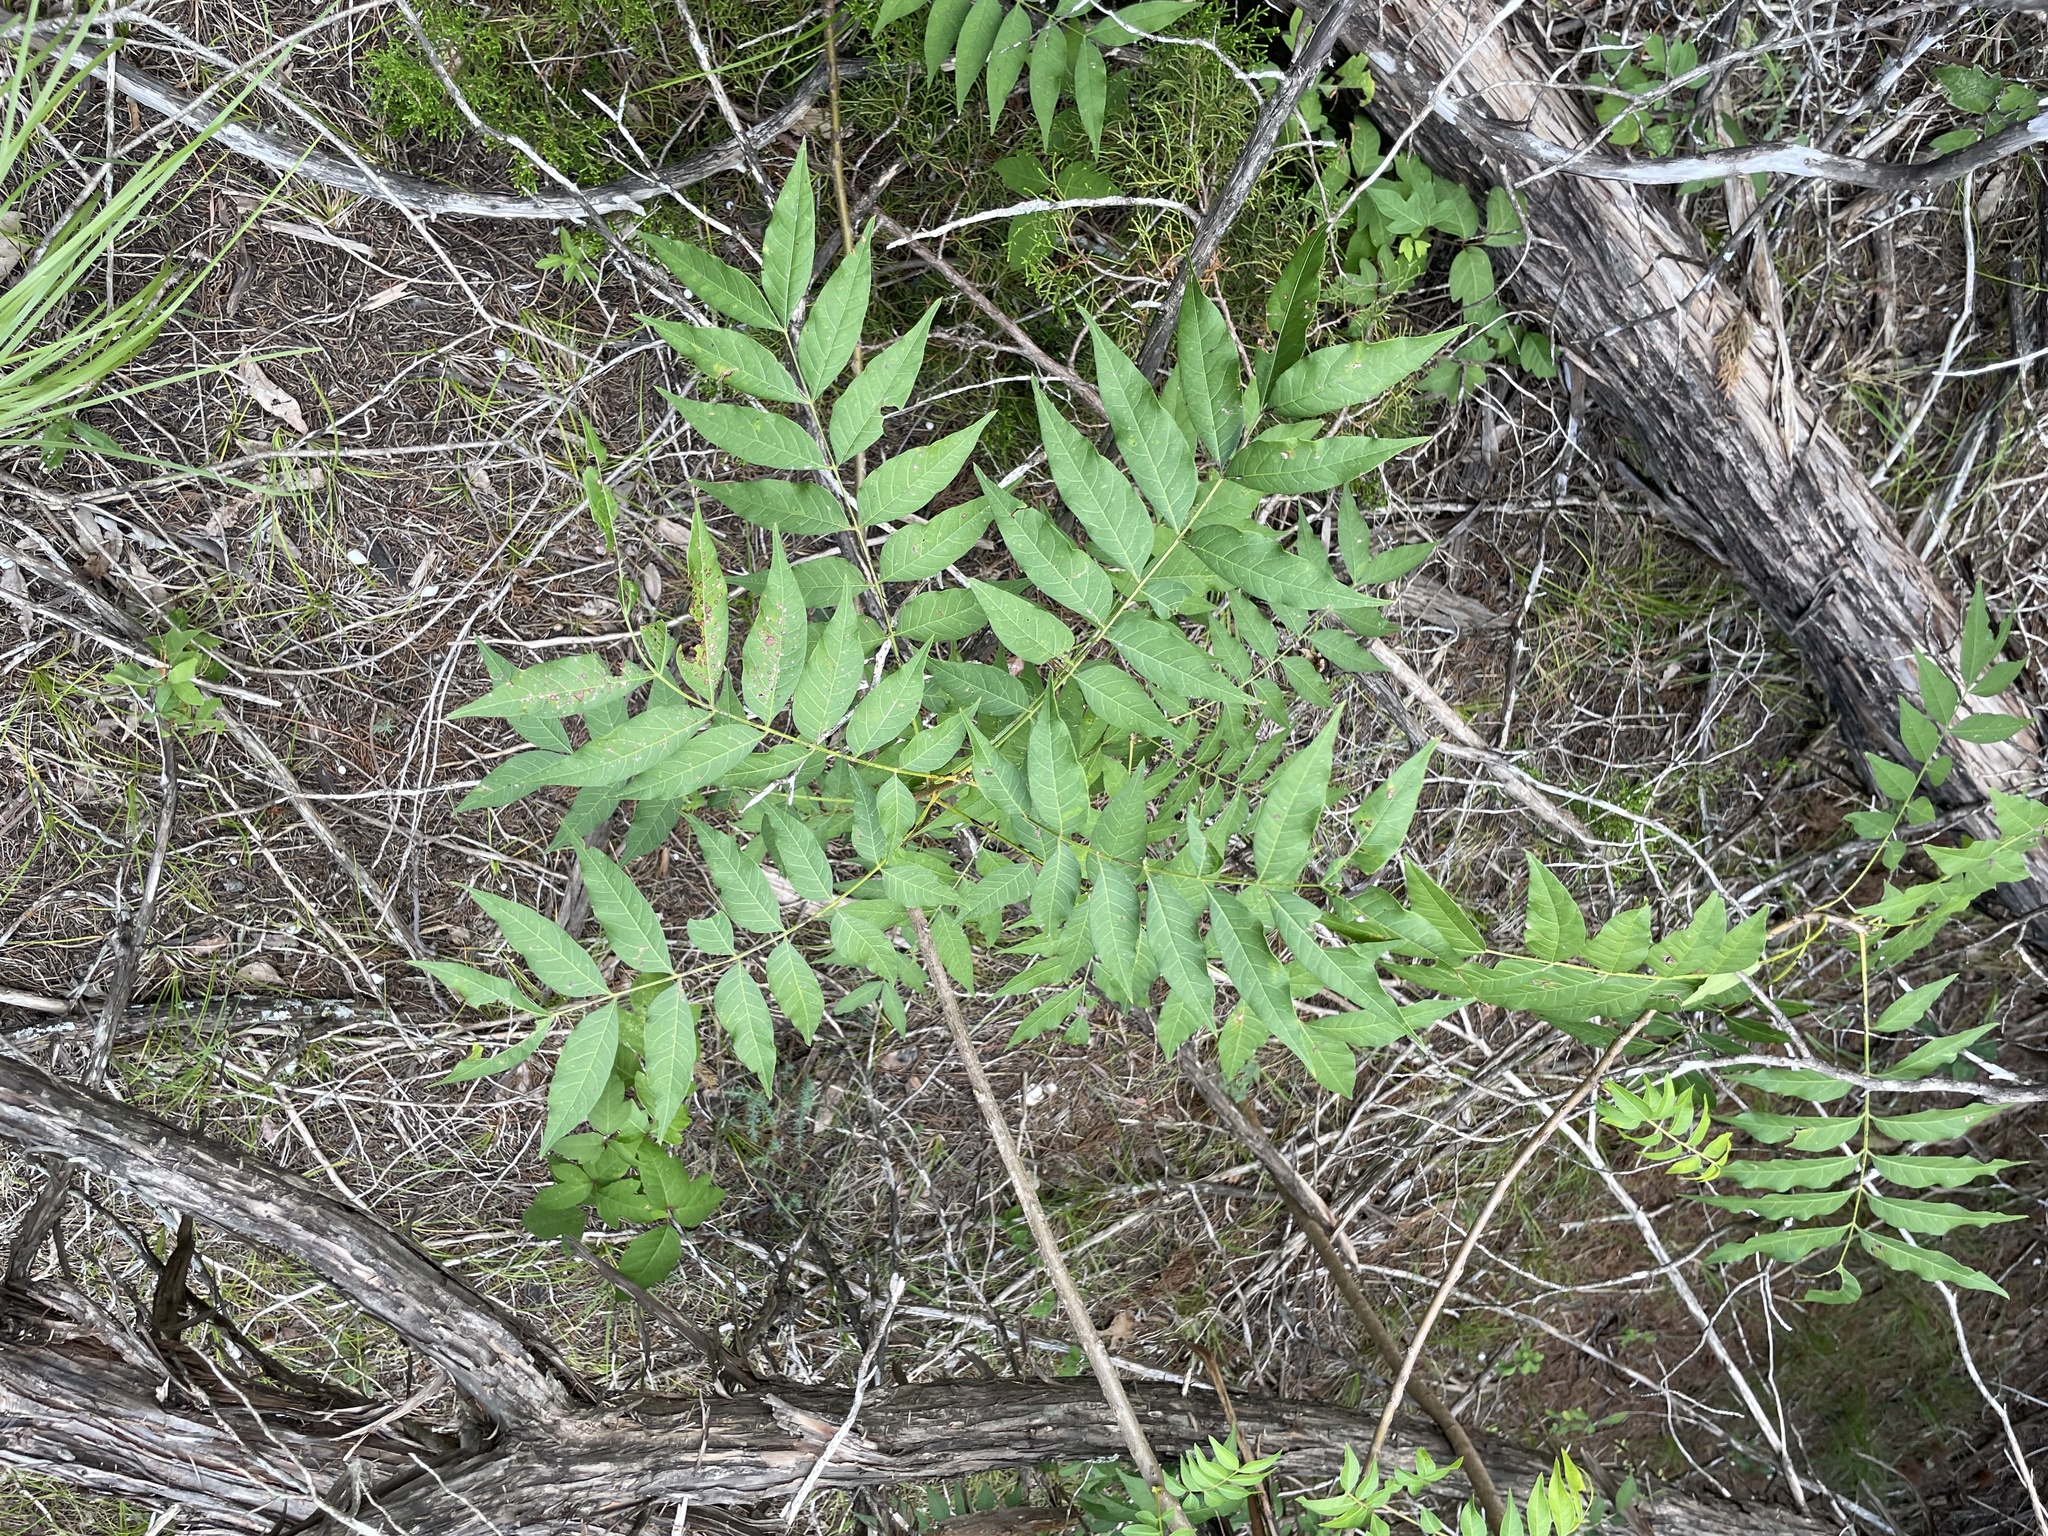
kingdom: Plantae
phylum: Tracheophyta
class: Magnoliopsida
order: Sapindales
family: Anacardiaceae
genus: Pistacia
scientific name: Pistacia chinensis
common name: Chinese pistache
